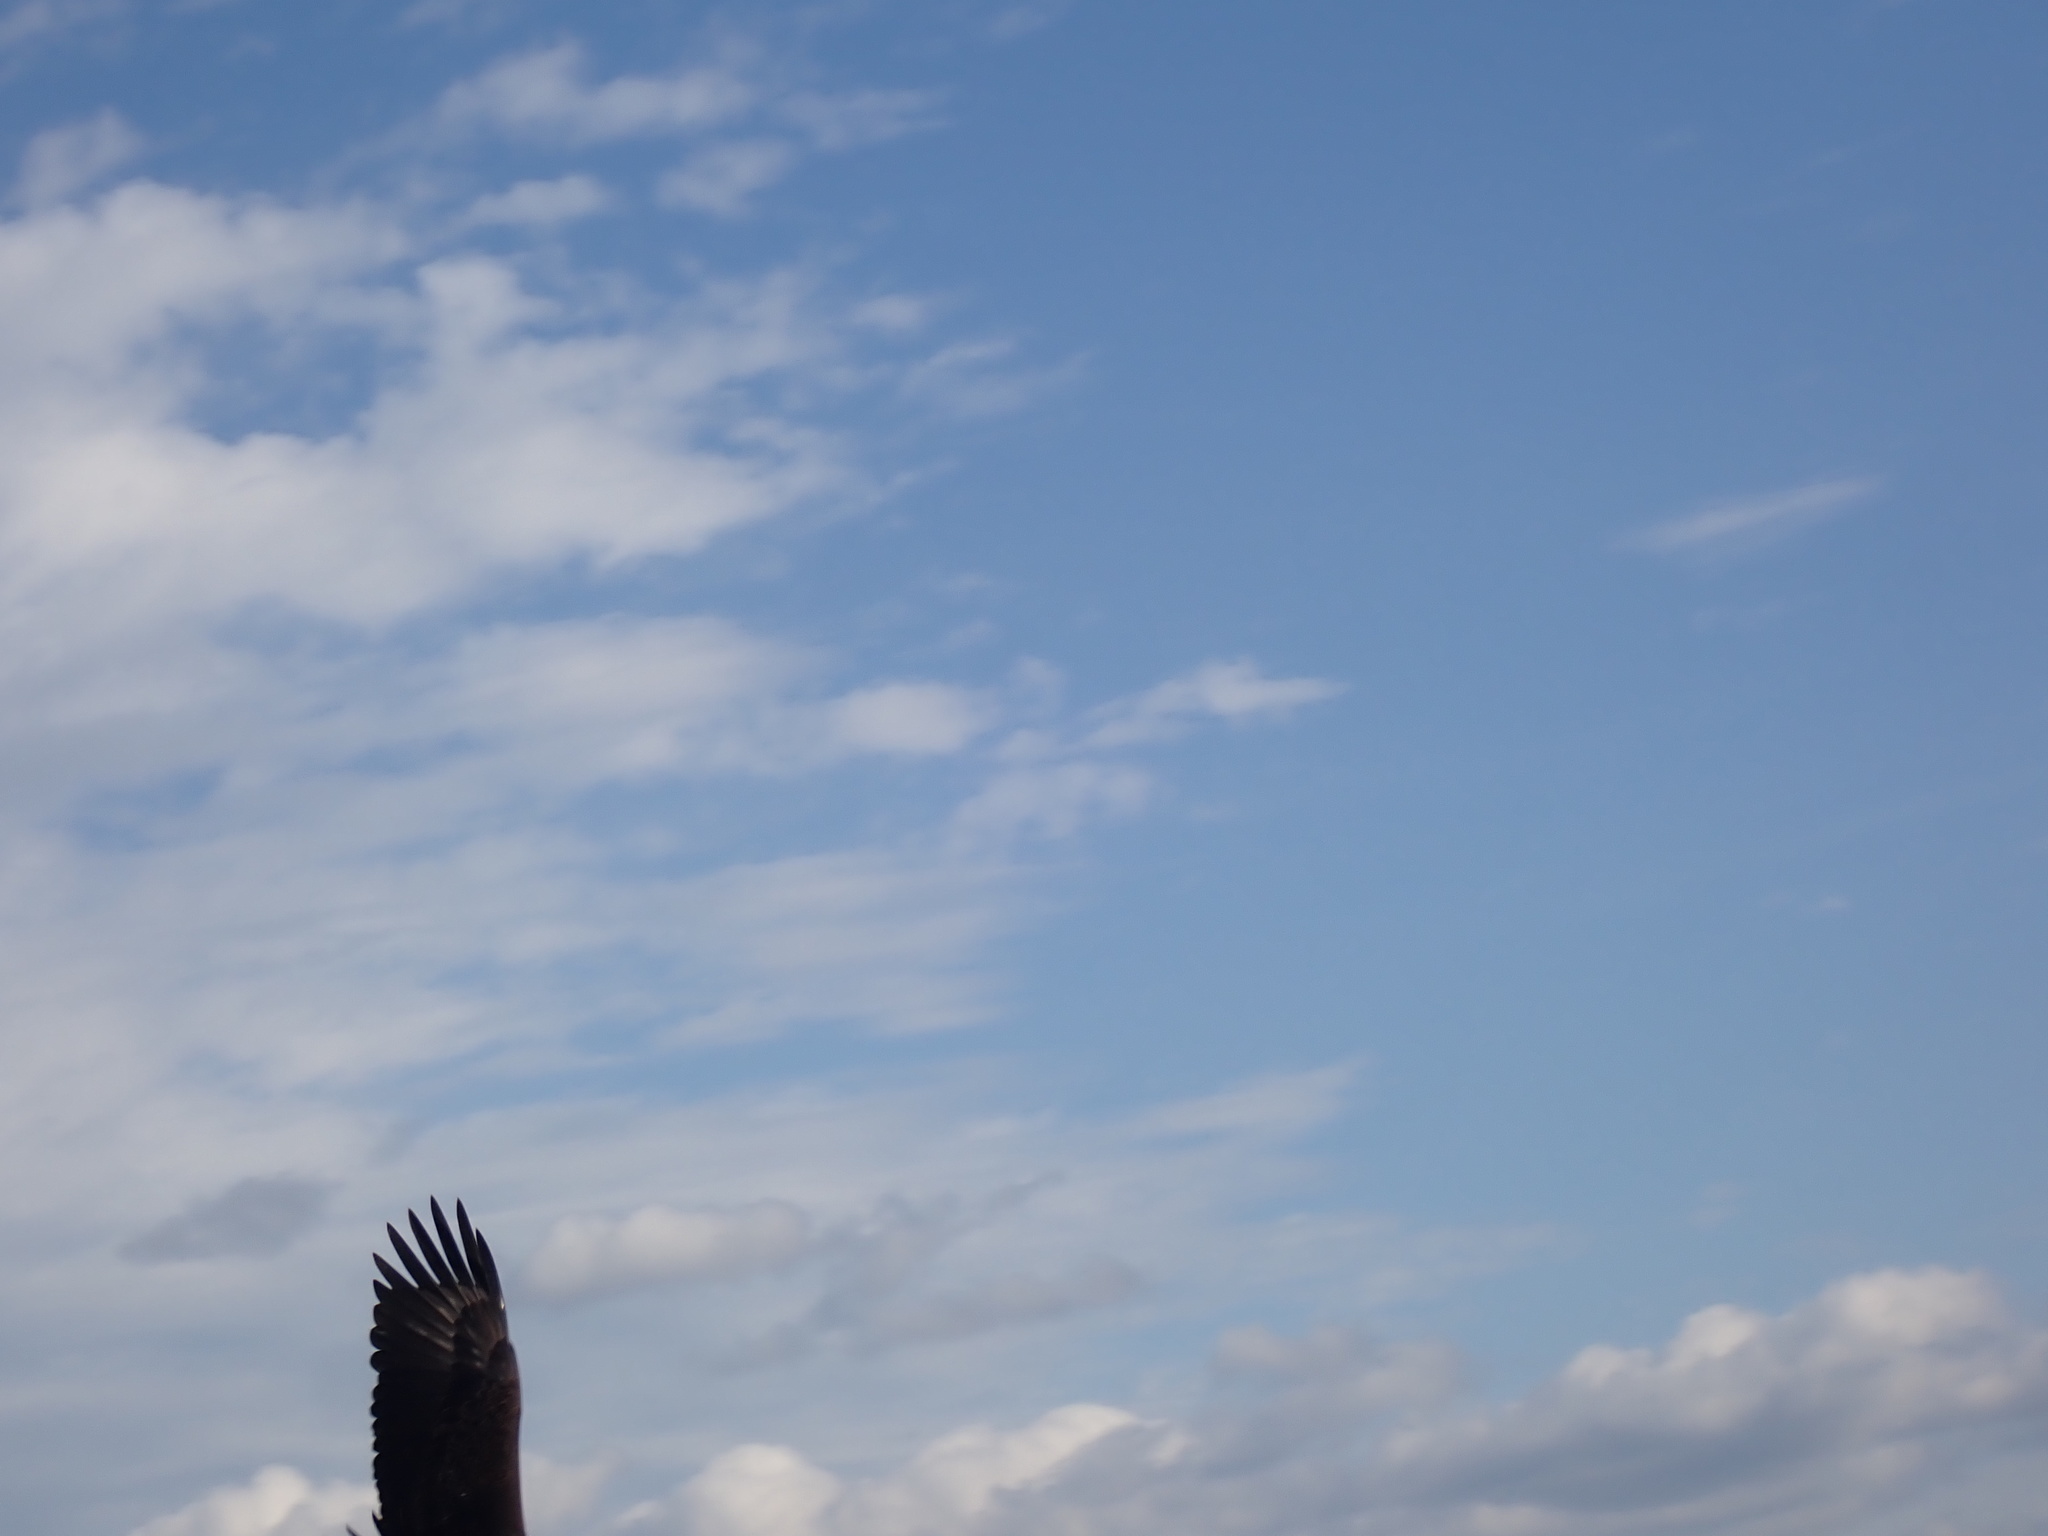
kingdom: Animalia
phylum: Chordata
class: Aves
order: Accipitriformes
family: Accipitridae
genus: Haliaeetus
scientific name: Haliaeetus leucocephalus
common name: Bald eagle
